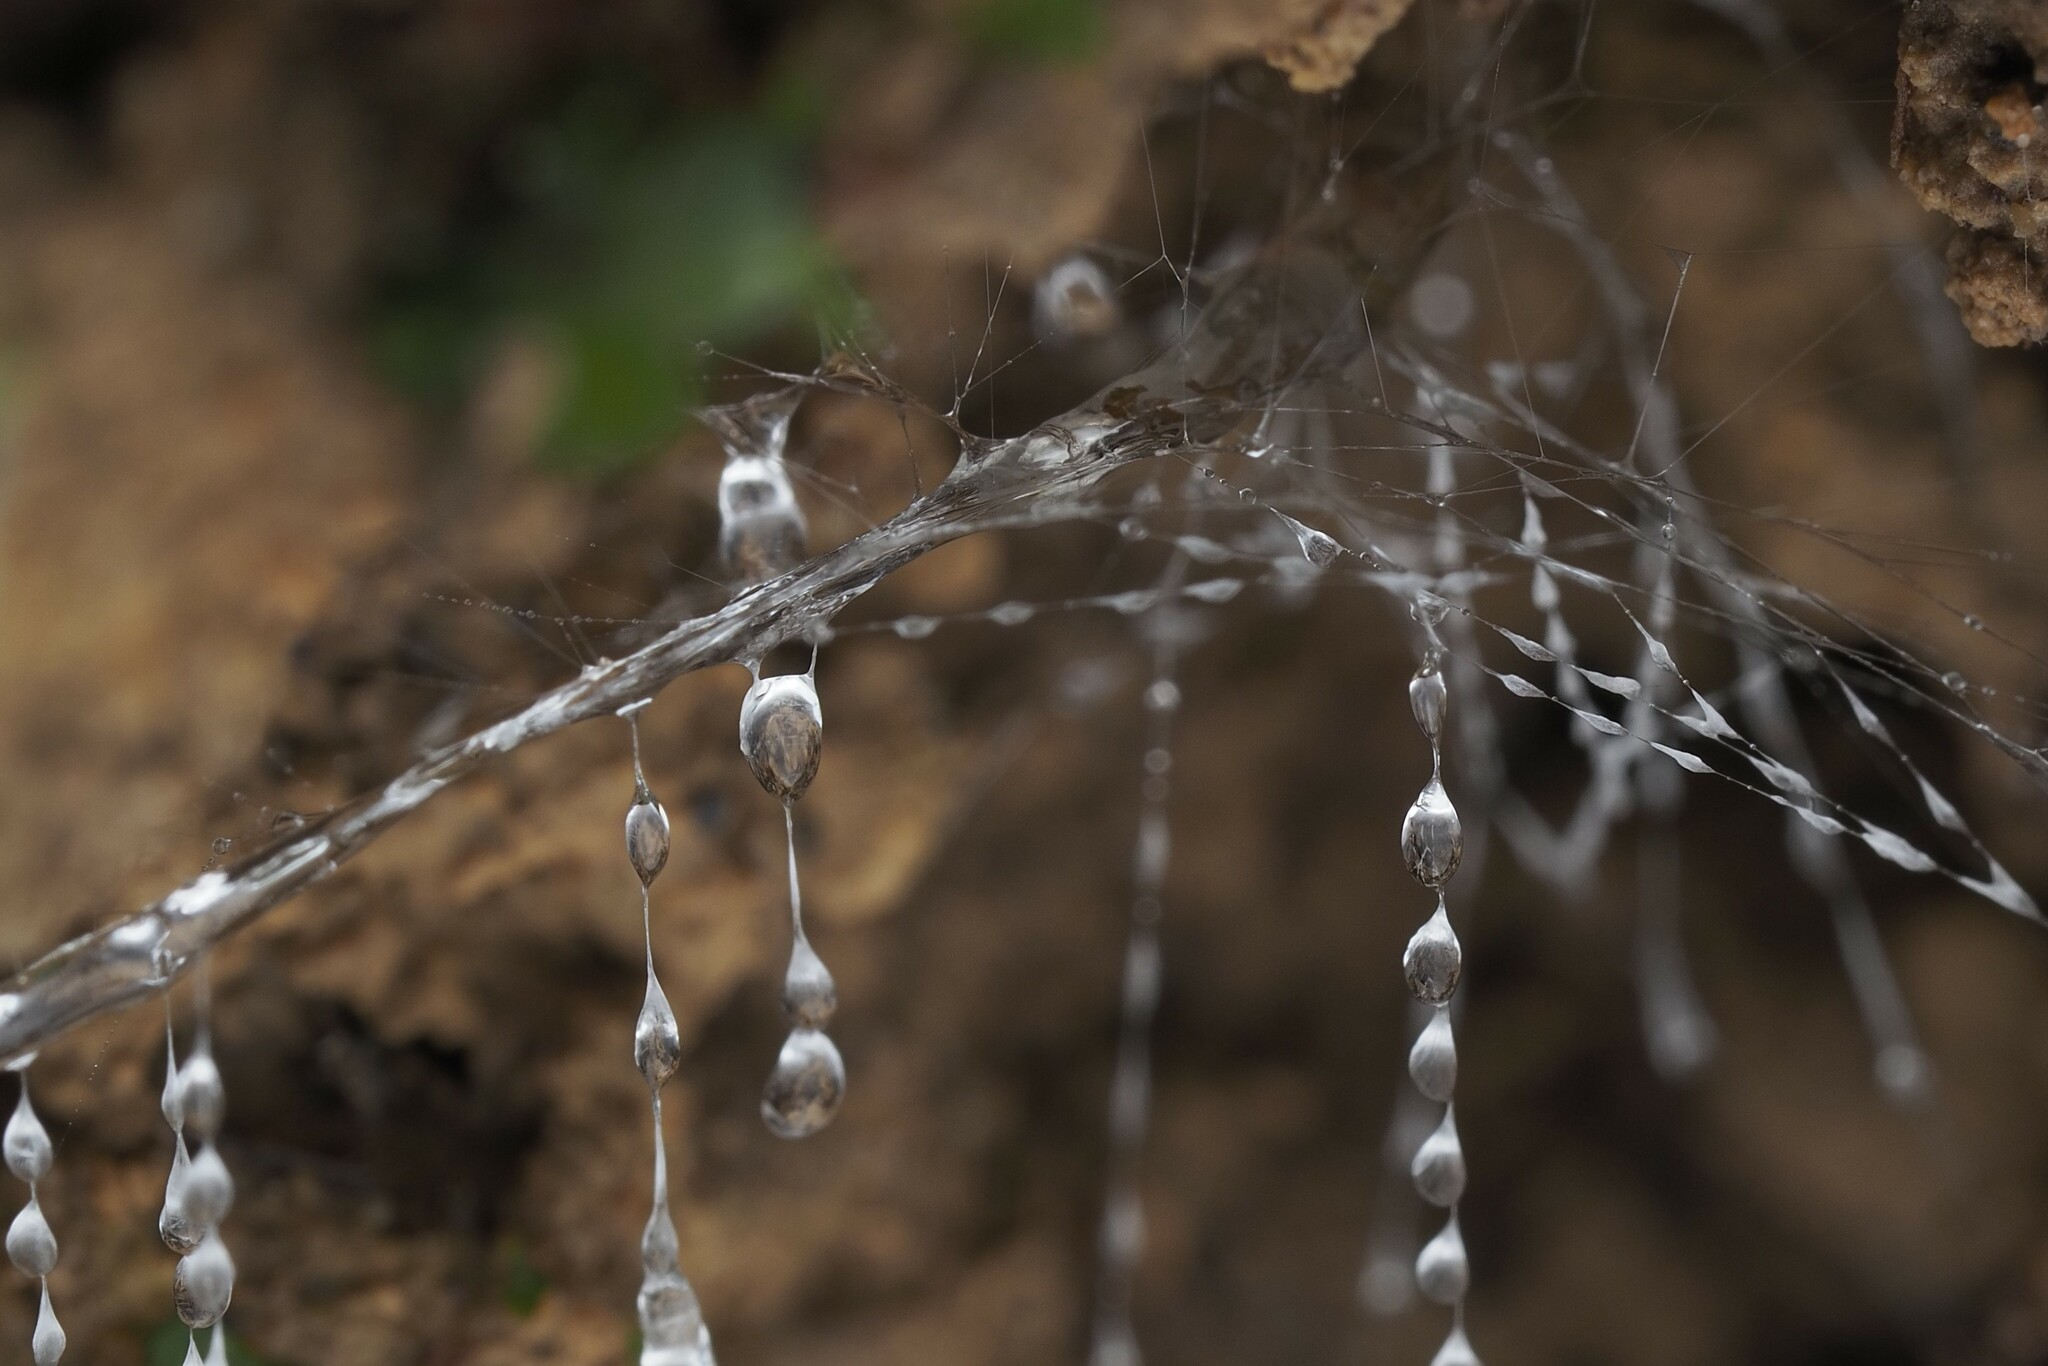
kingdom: Animalia
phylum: Arthropoda
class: Insecta
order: Diptera
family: Keroplatidae
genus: Arachnocampa
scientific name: Arachnocampa luminosa
